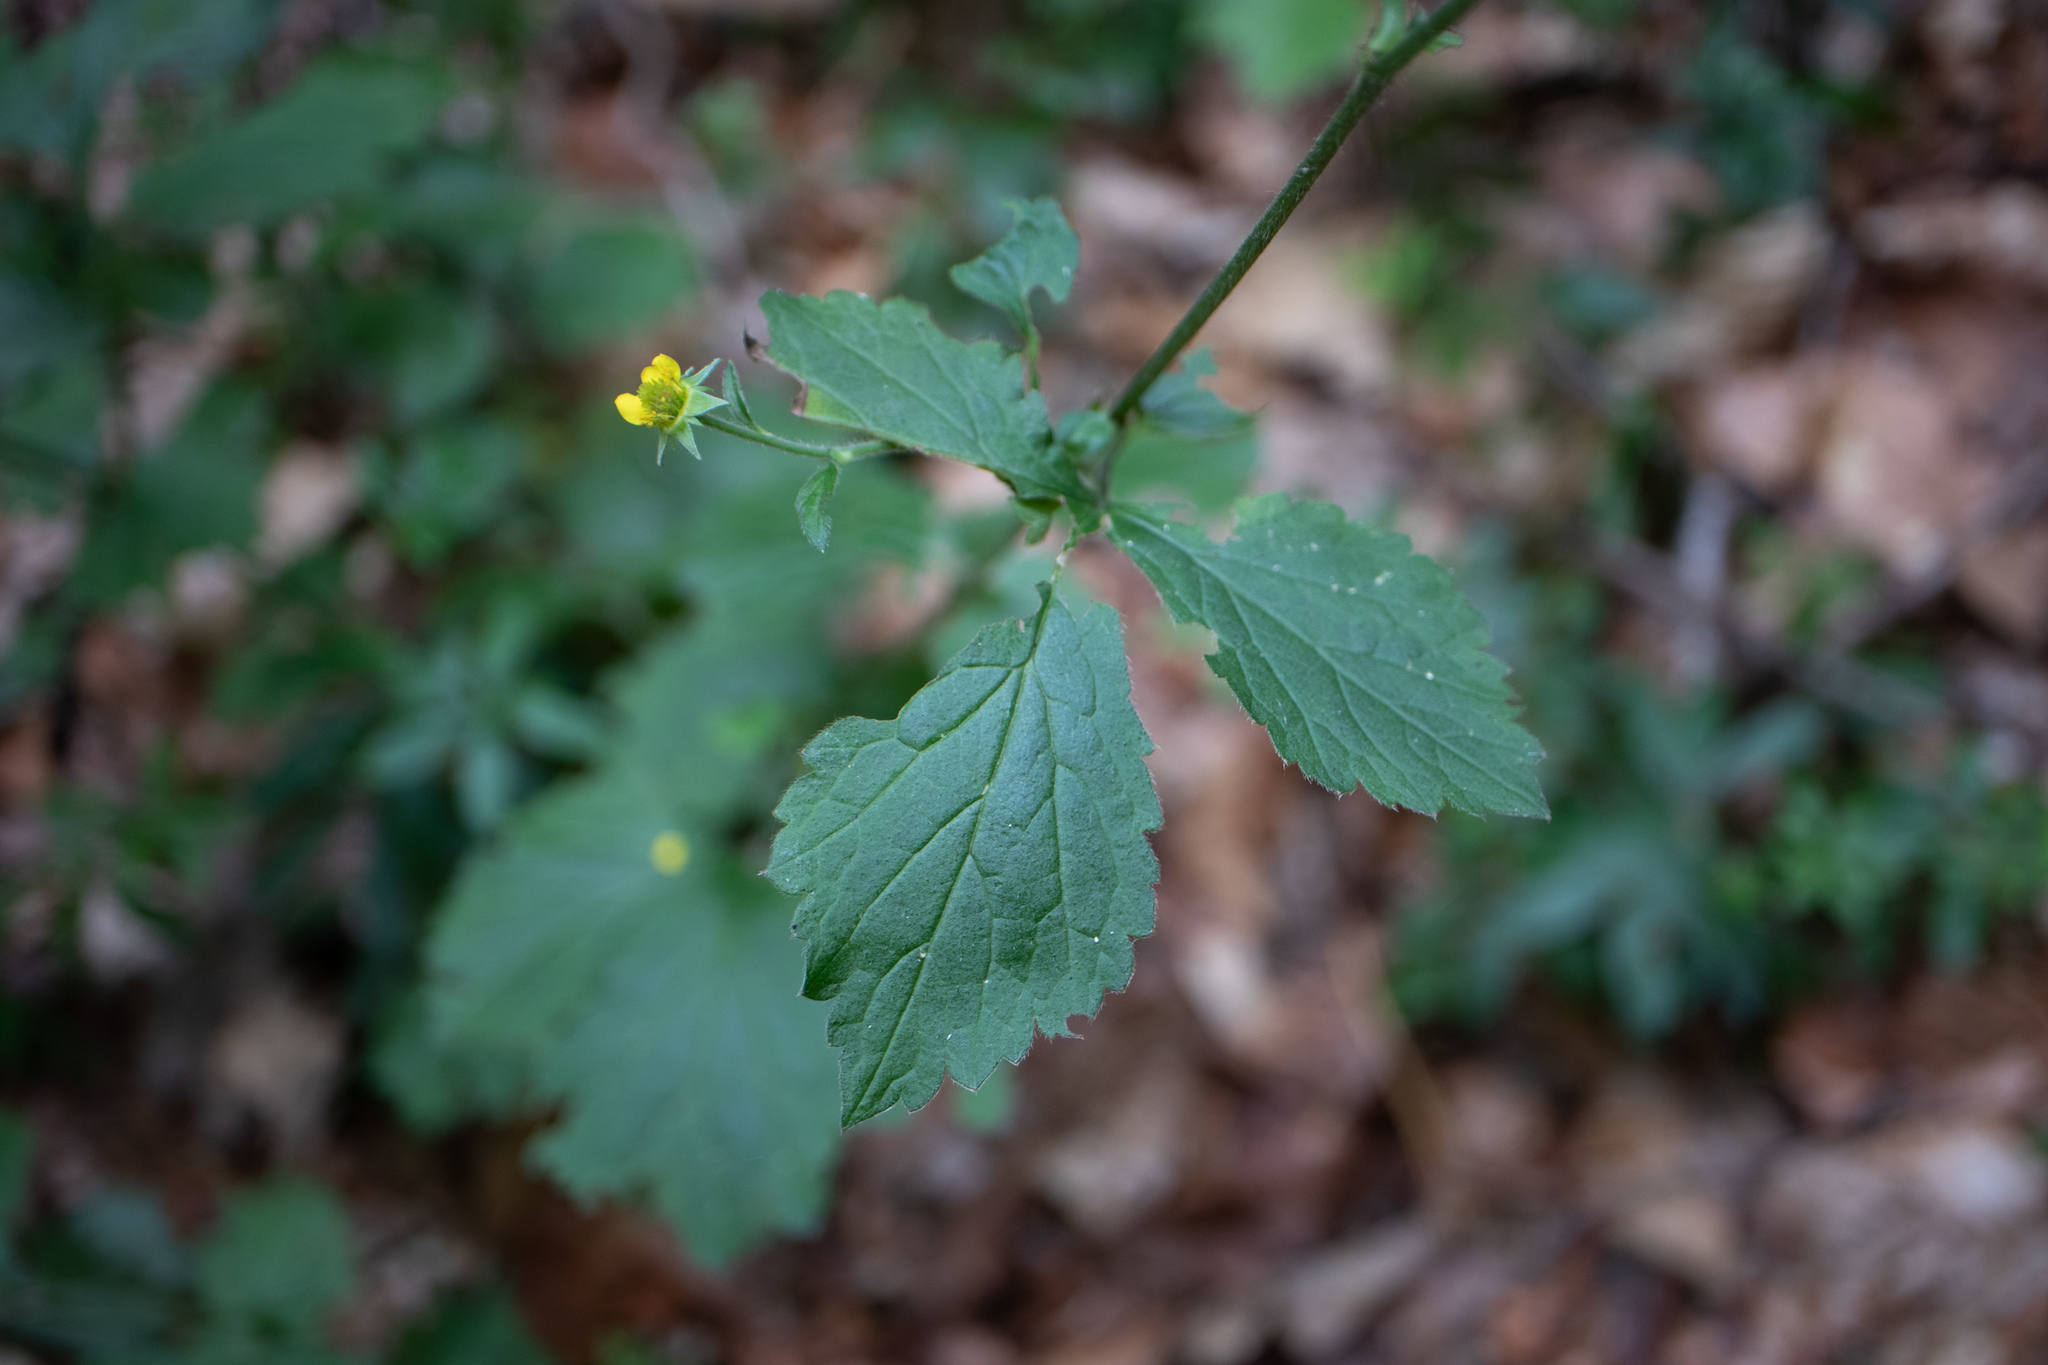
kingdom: Plantae
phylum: Tracheophyta
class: Magnoliopsida
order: Rosales
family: Rosaceae
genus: Geum
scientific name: Geum urbanum
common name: Wood avens
